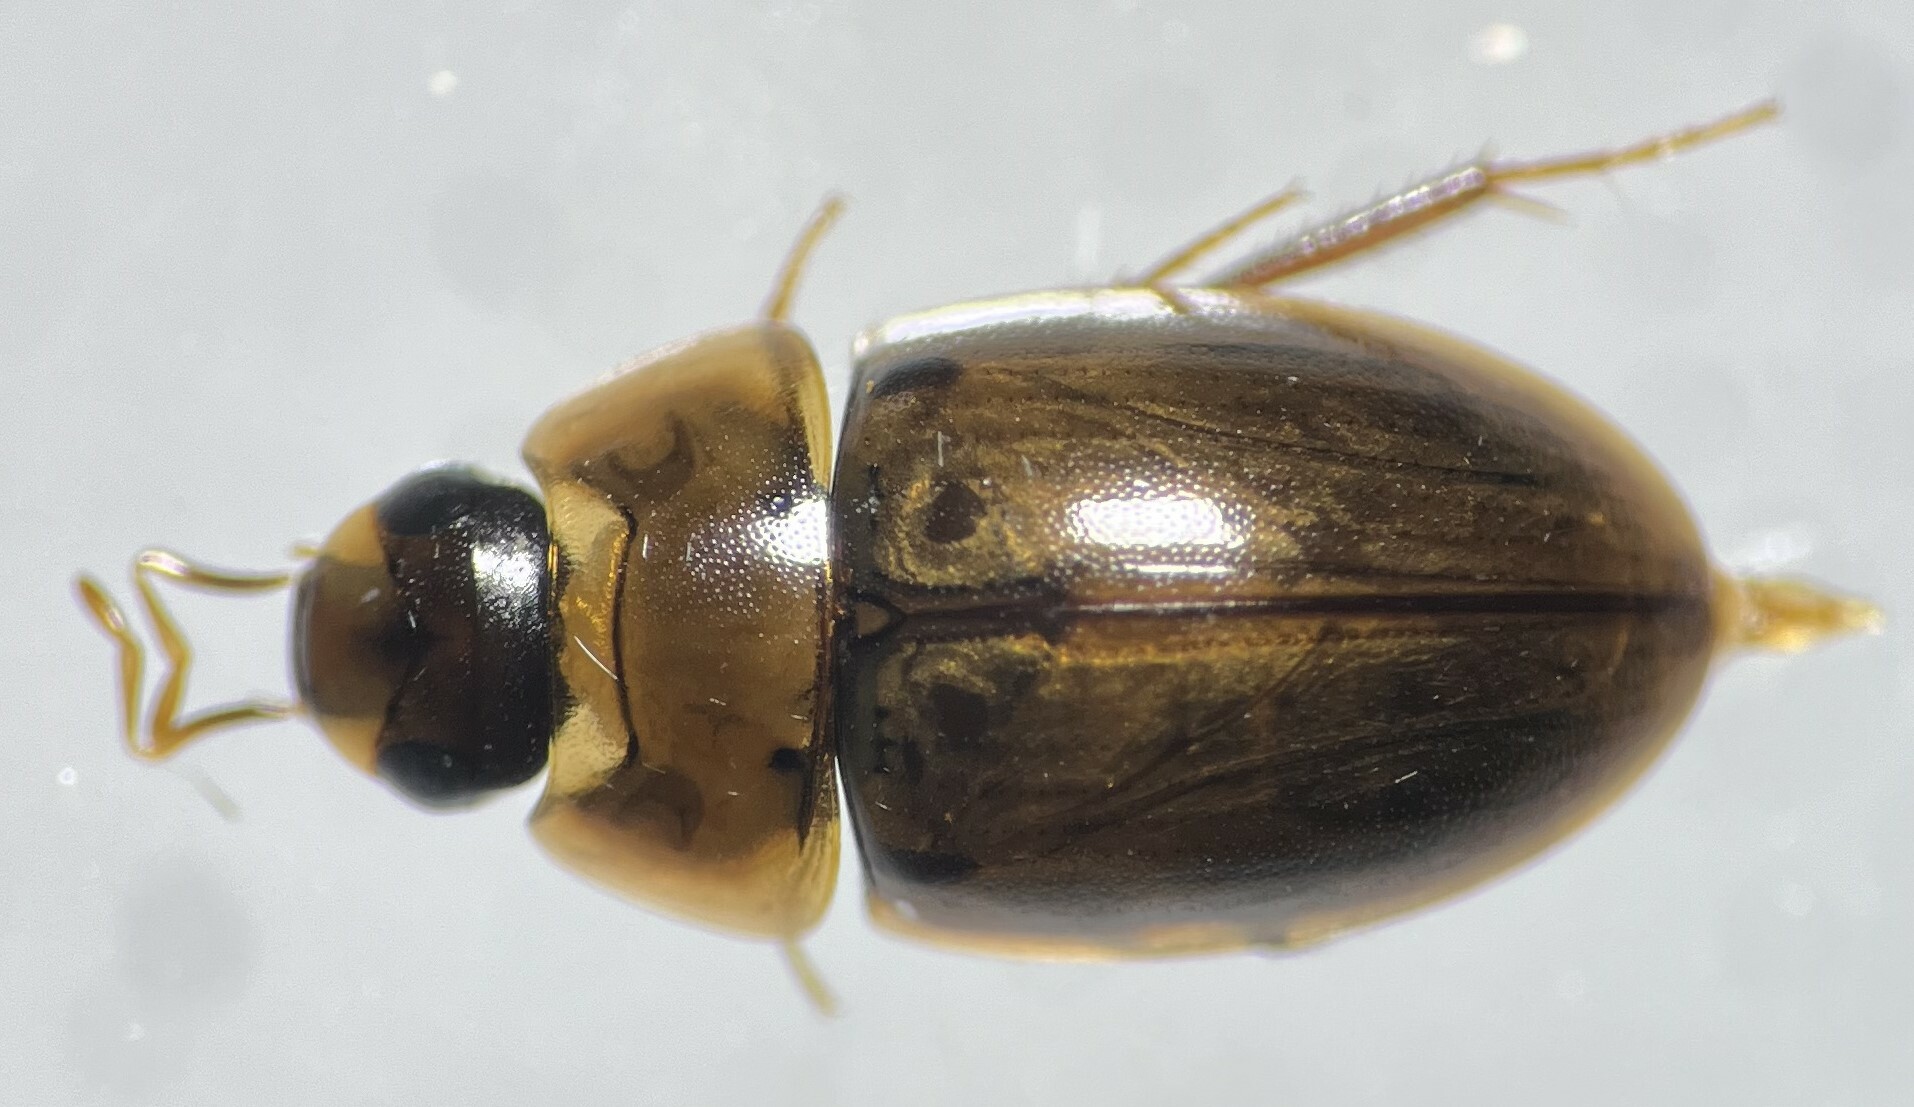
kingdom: Animalia
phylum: Arthropoda
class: Insecta
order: Coleoptera
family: Hydrophilidae
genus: Enochrus
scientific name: Enochrus blatchleyi
